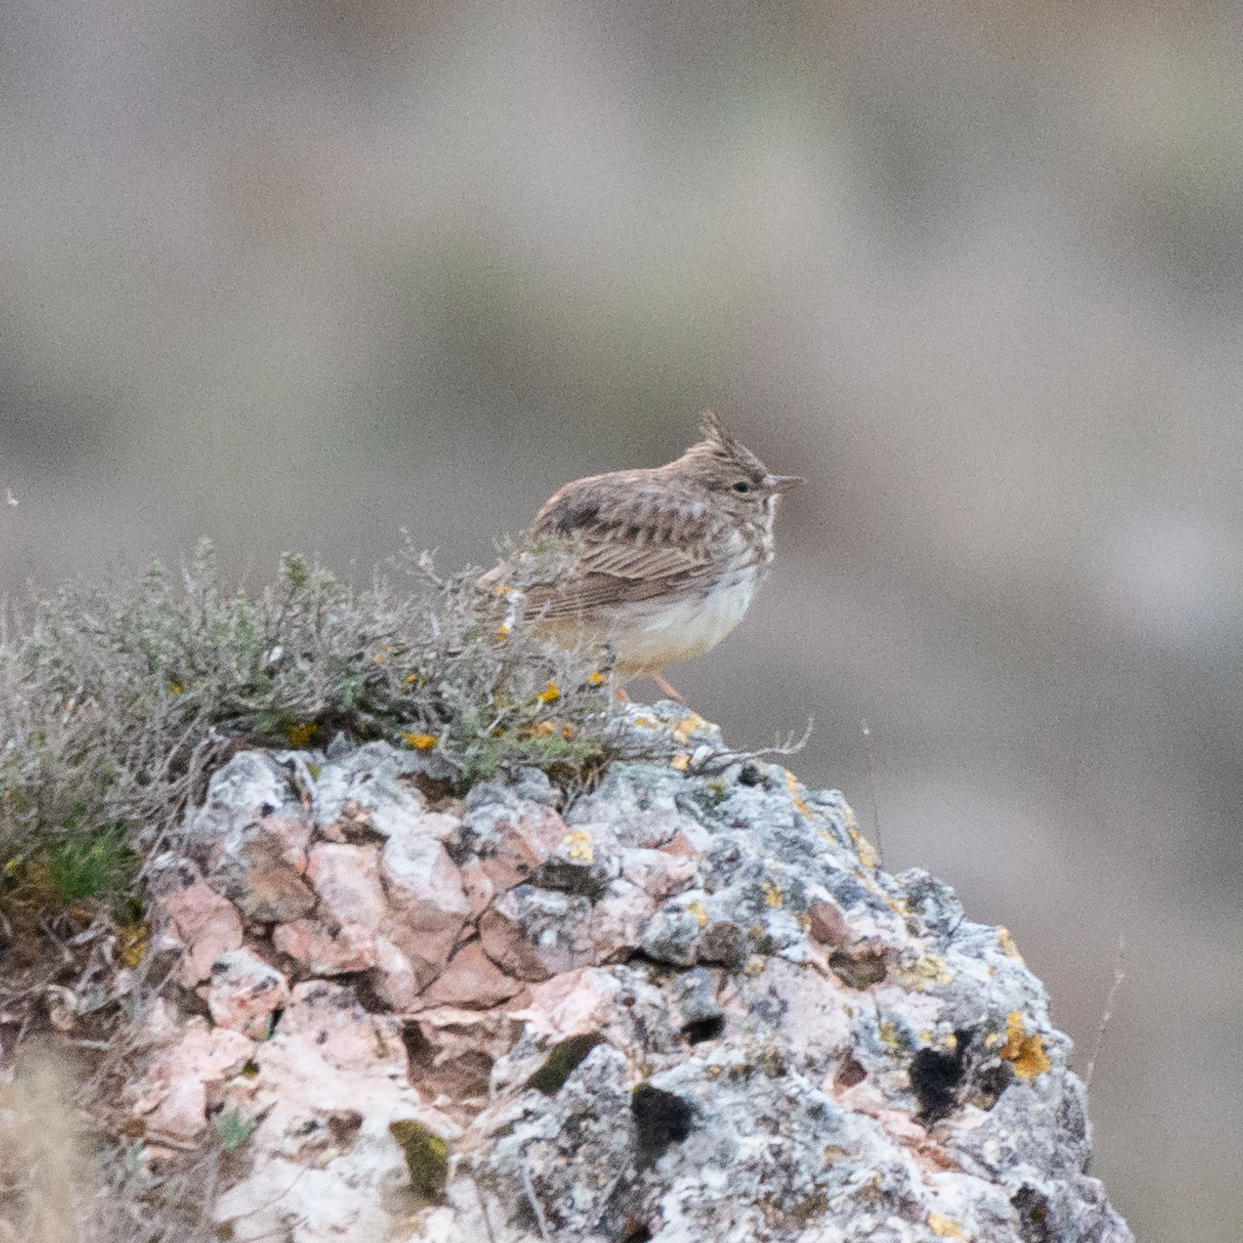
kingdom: Animalia
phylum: Chordata
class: Aves
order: Passeriformes
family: Alaudidae
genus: Galerida
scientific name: Galerida theklae
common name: Thekla lark
